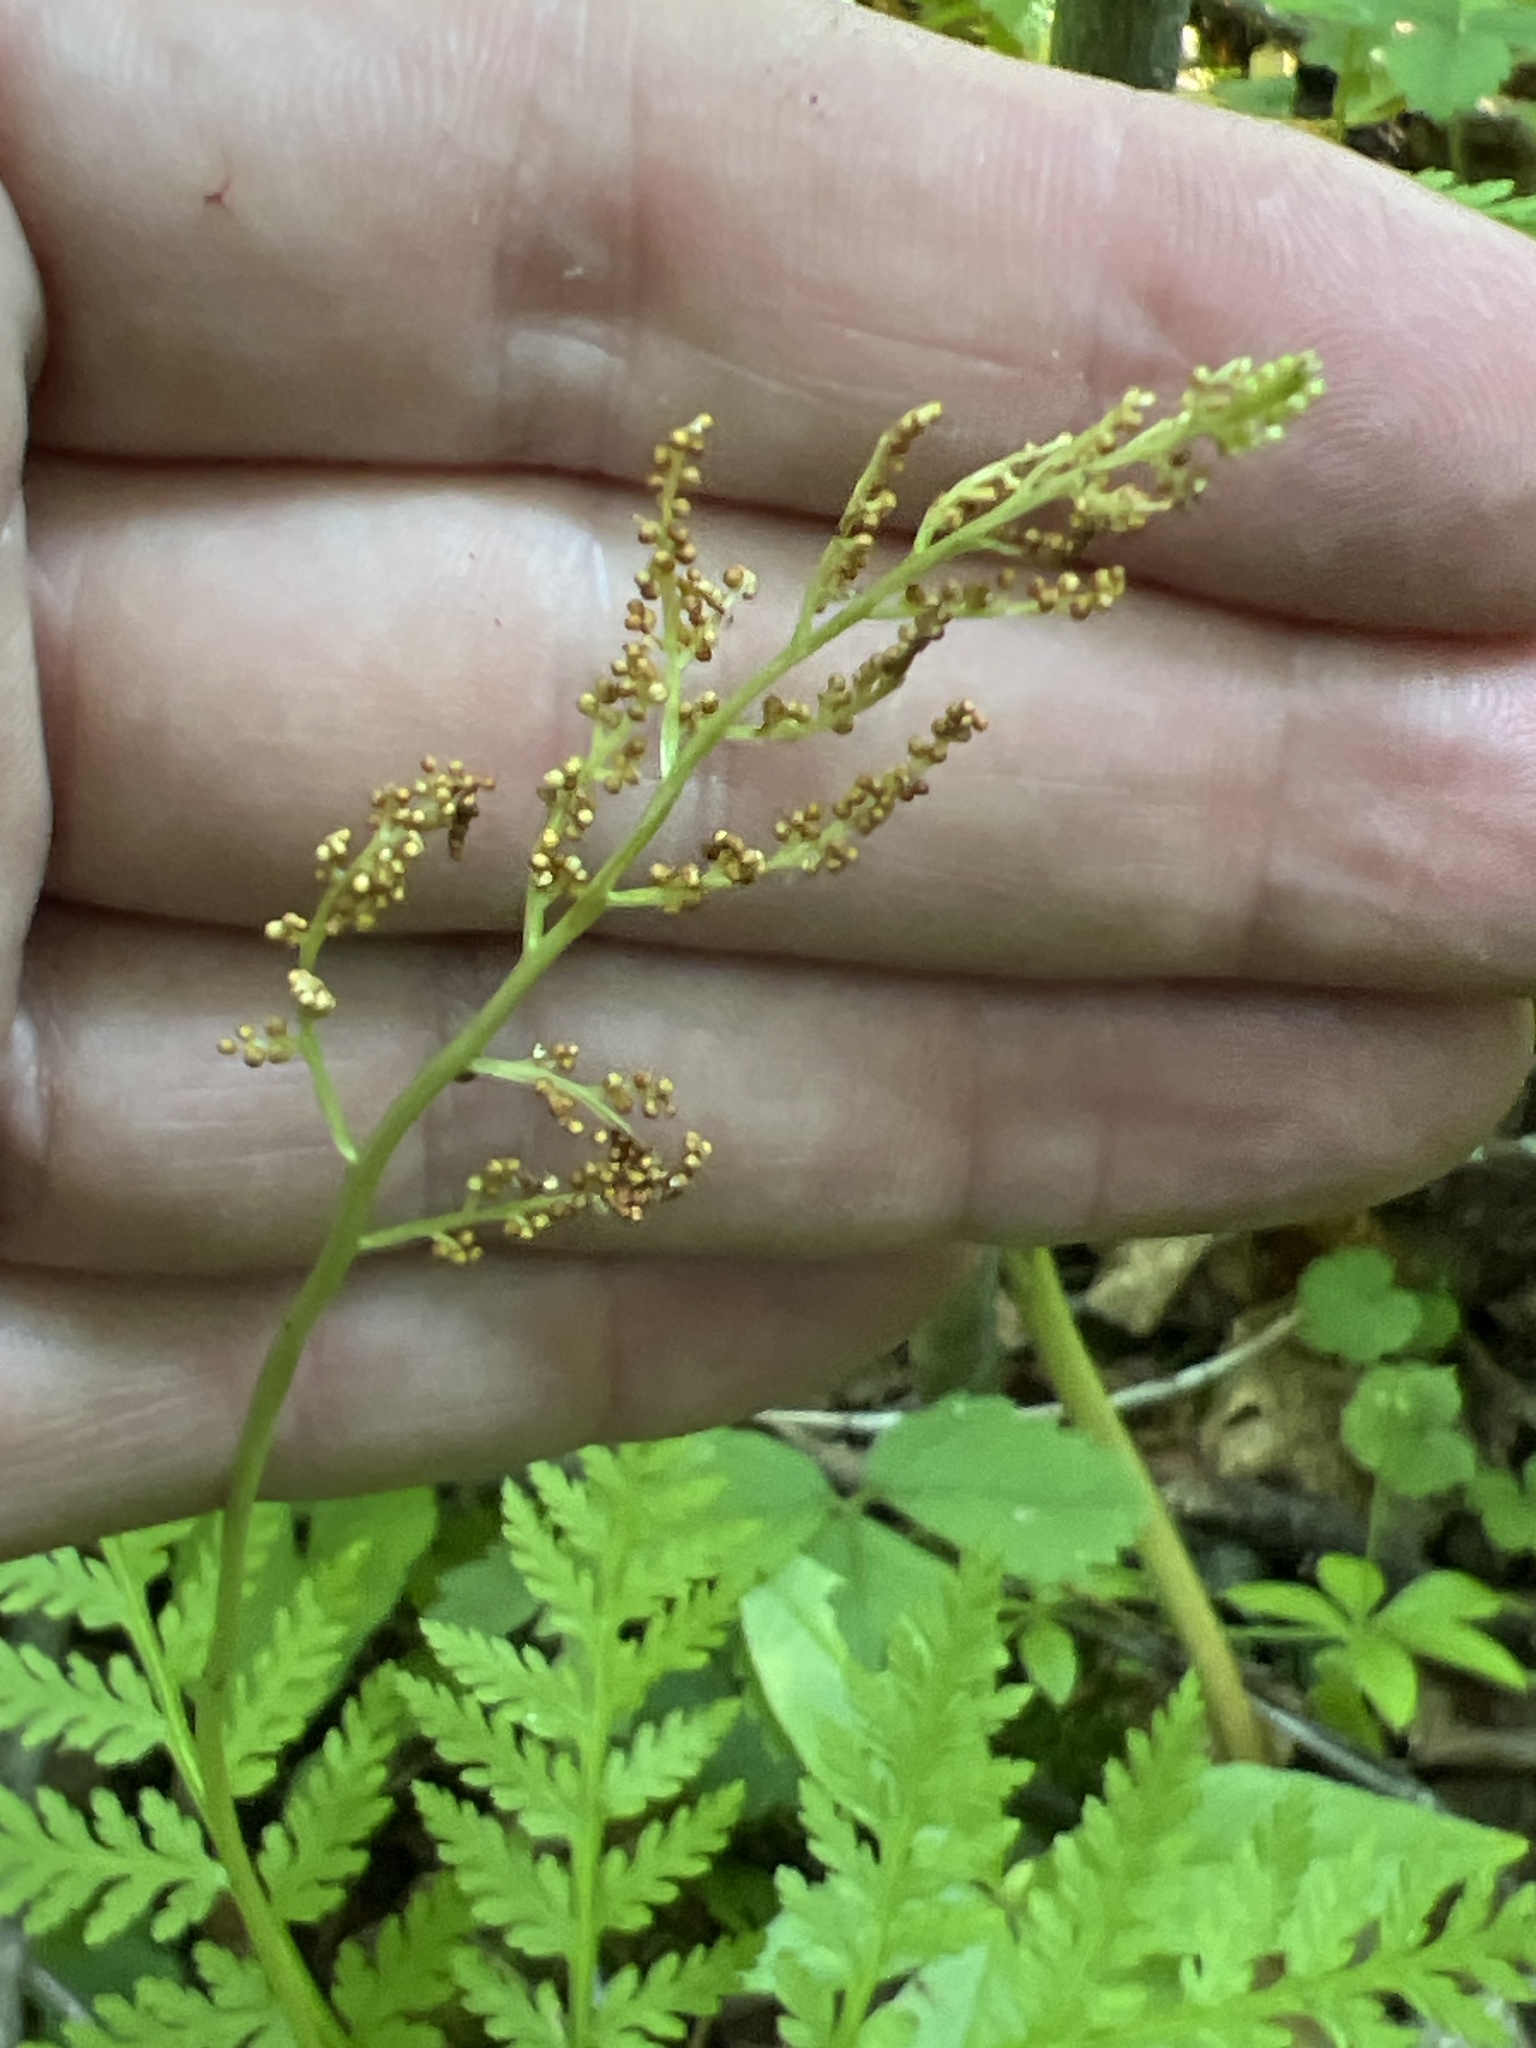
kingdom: Plantae
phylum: Tracheophyta
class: Polypodiopsida
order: Ophioglossales
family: Ophioglossaceae
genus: Botrypus
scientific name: Botrypus virginianus
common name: Common grapefern
